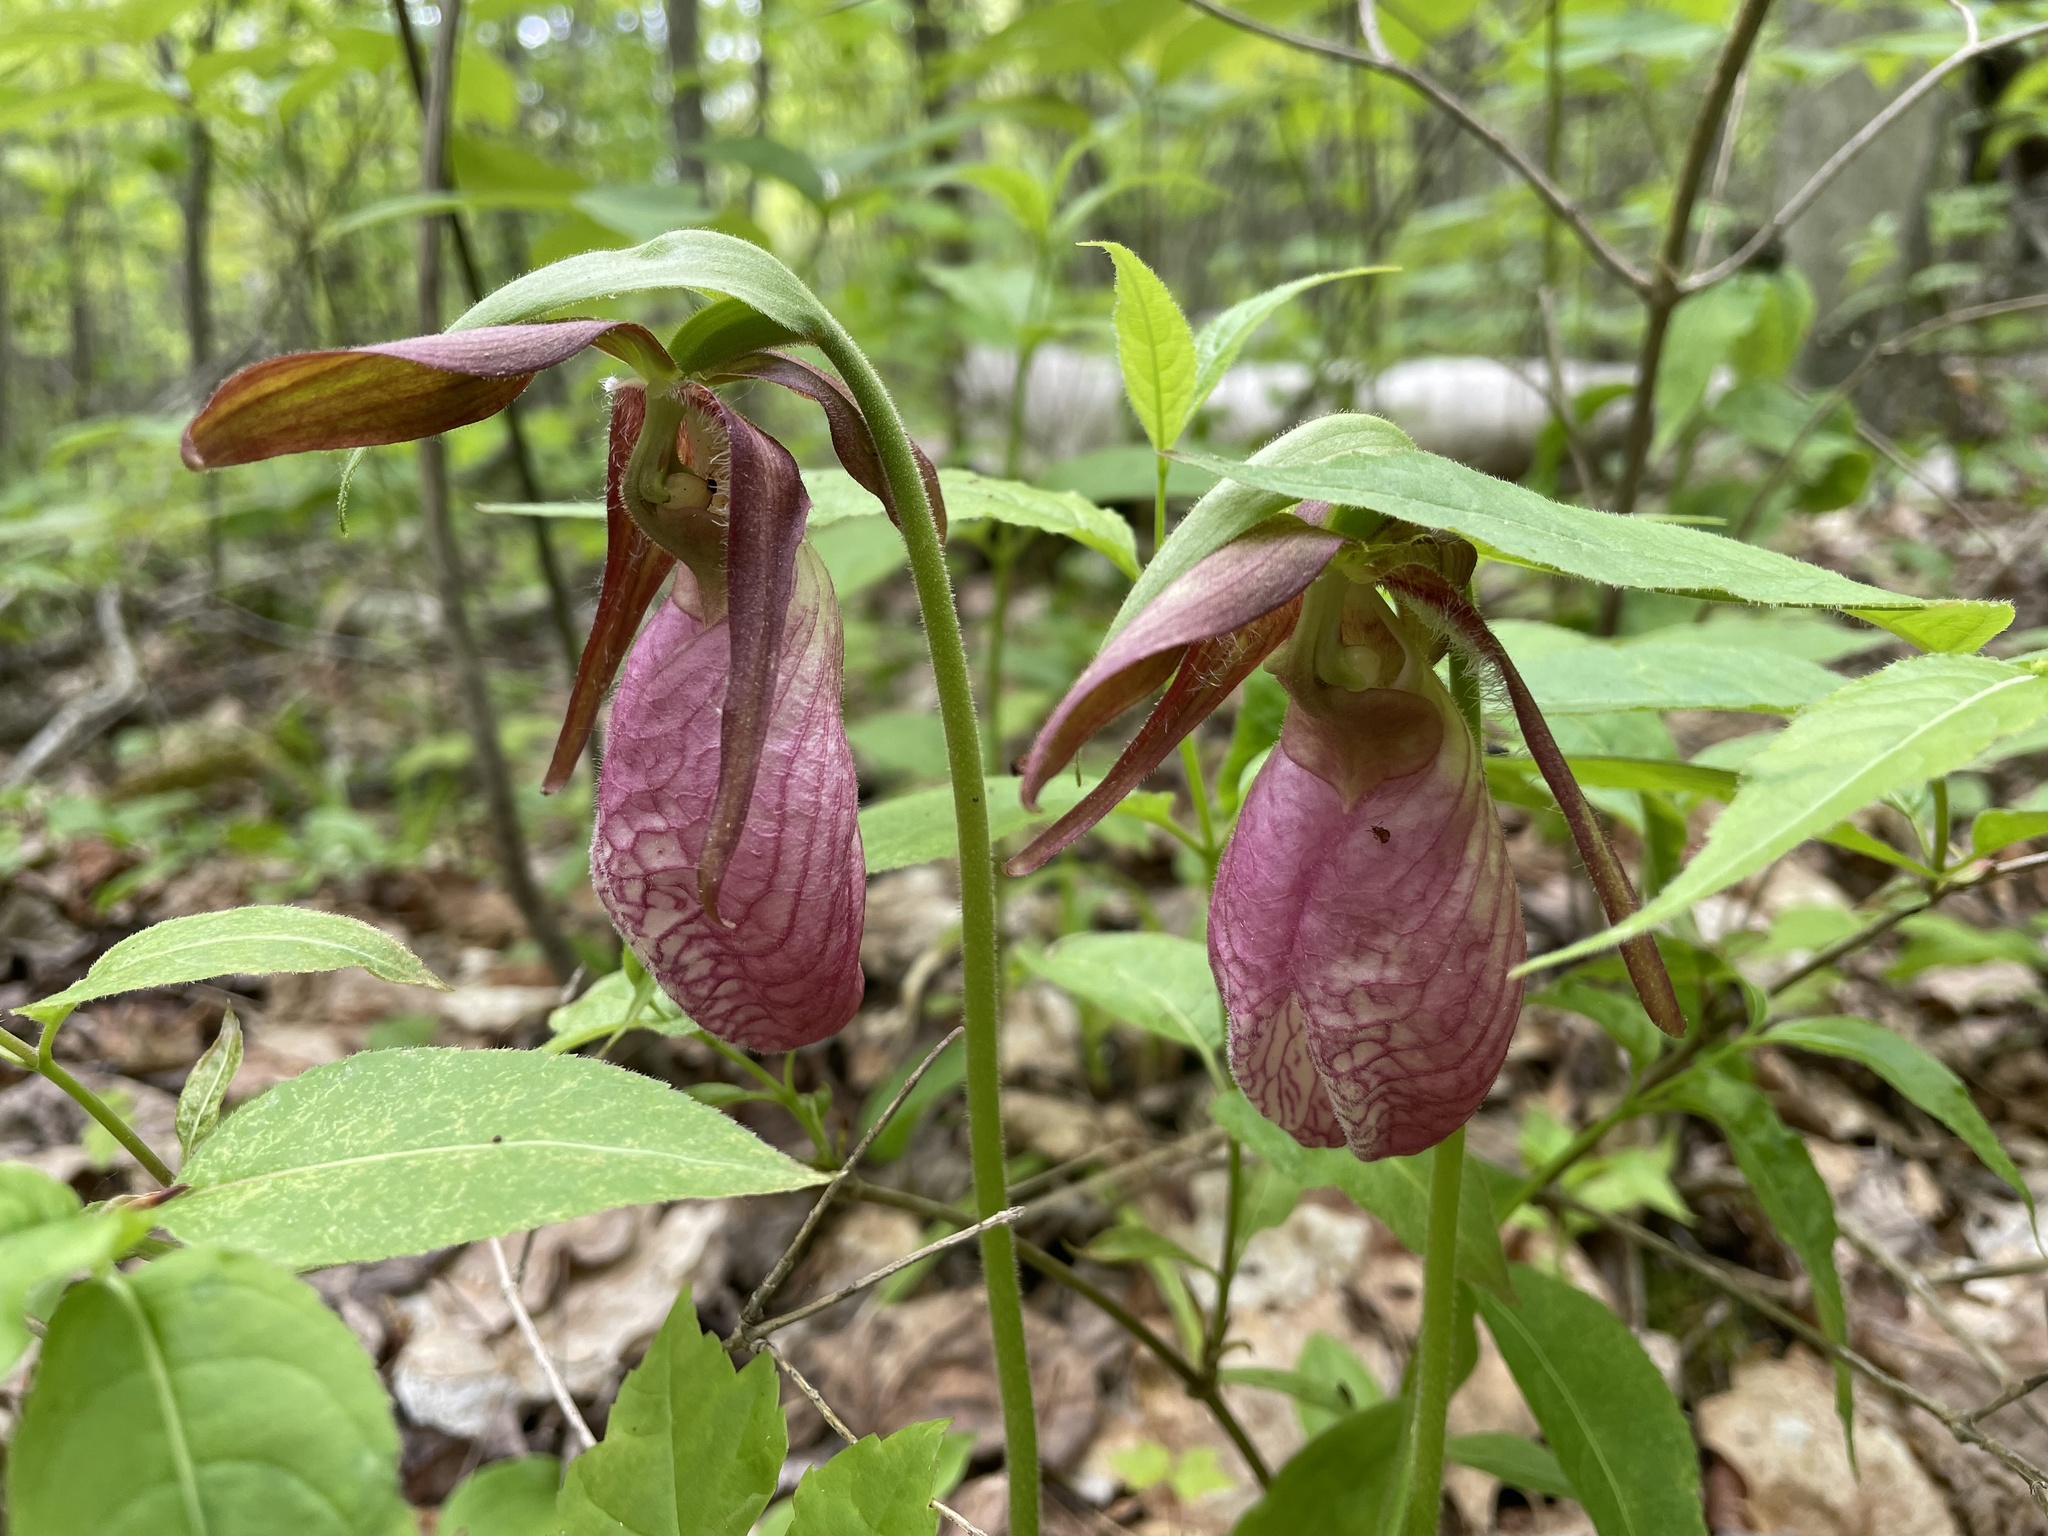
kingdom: Plantae
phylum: Tracheophyta
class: Liliopsida
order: Asparagales
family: Orchidaceae
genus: Cypripedium
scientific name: Cypripedium acaule
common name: Pink lady's-slipper
